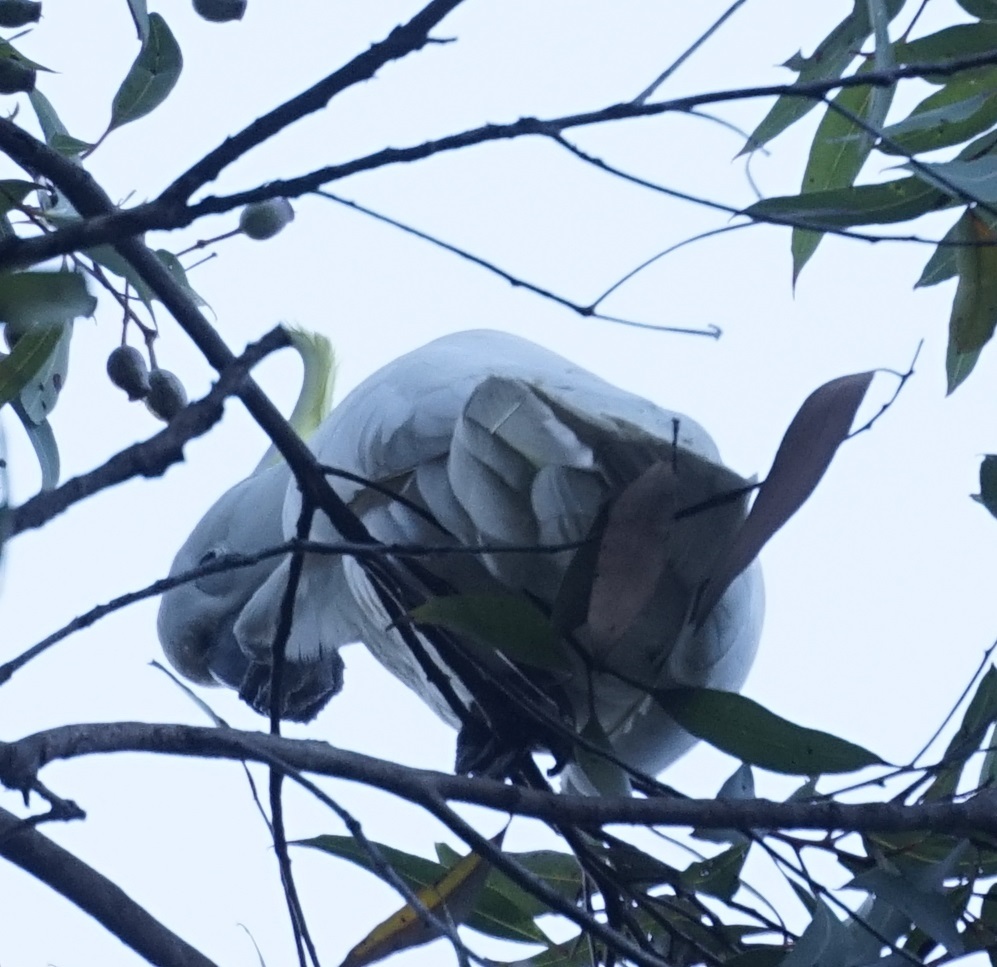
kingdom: Animalia
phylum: Chordata
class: Aves
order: Psittaciformes
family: Psittacidae
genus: Cacatua
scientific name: Cacatua galerita
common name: Sulphur-crested cockatoo
